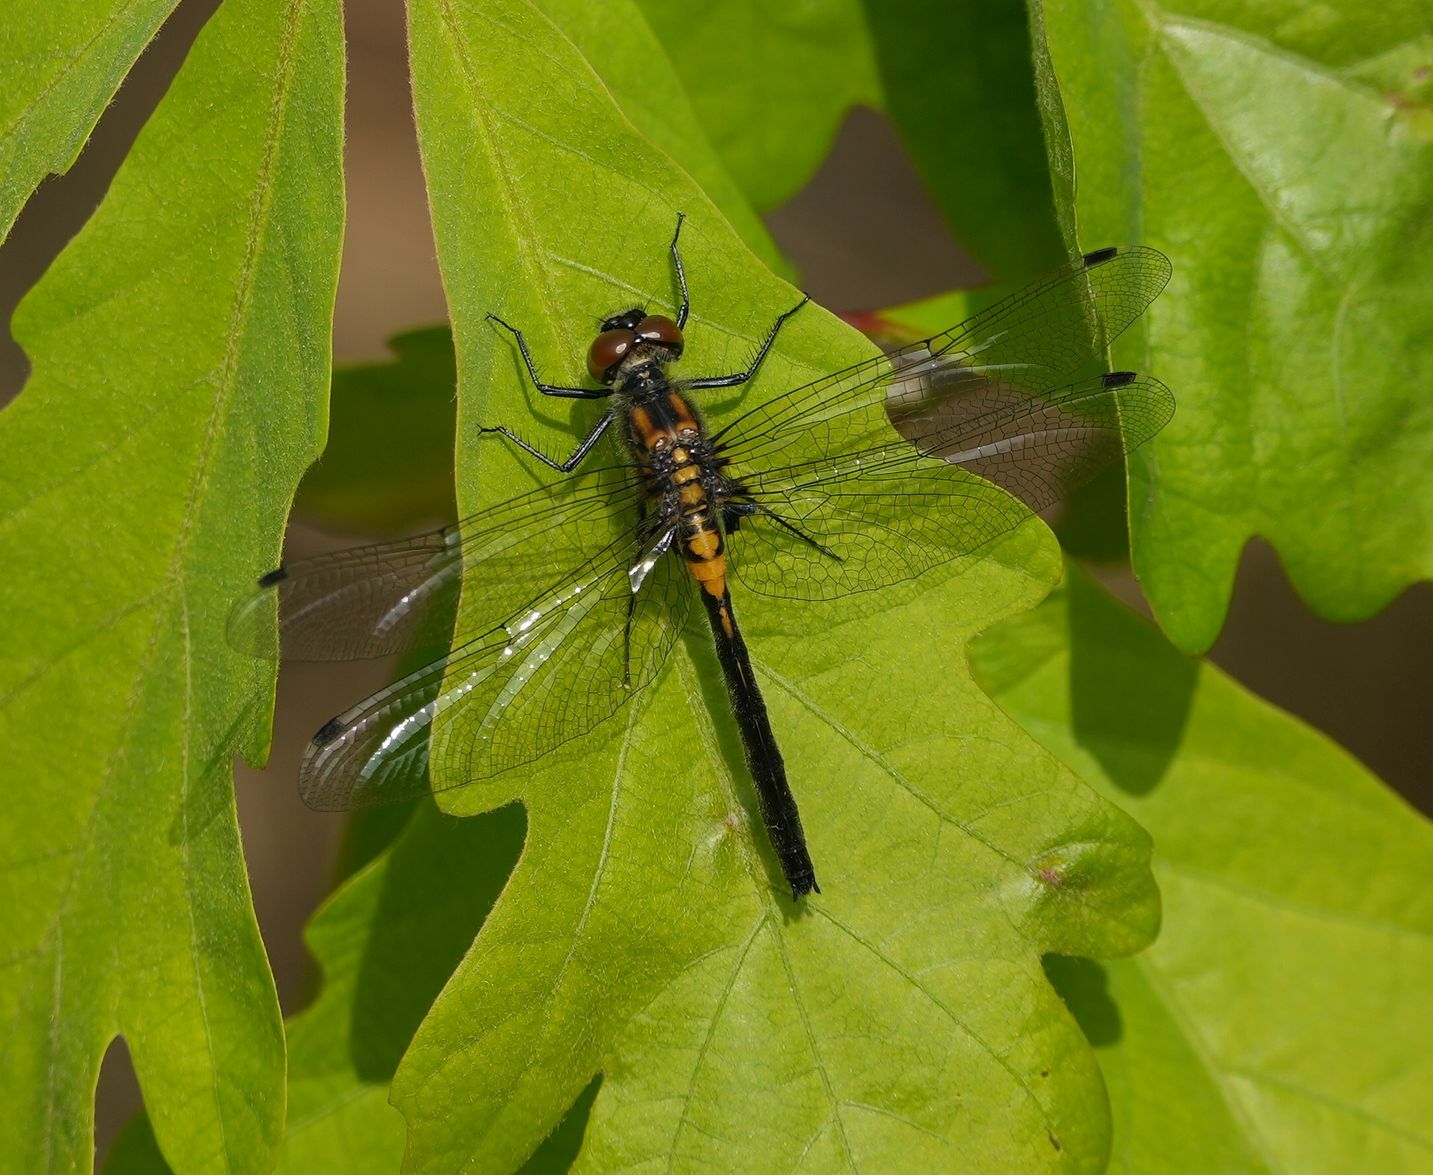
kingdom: Animalia
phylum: Arthropoda
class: Insecta
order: Odonata
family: Libellulidae
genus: Leucorrhinia
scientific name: Leucorrhinia proxima
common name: Belted whiteface
